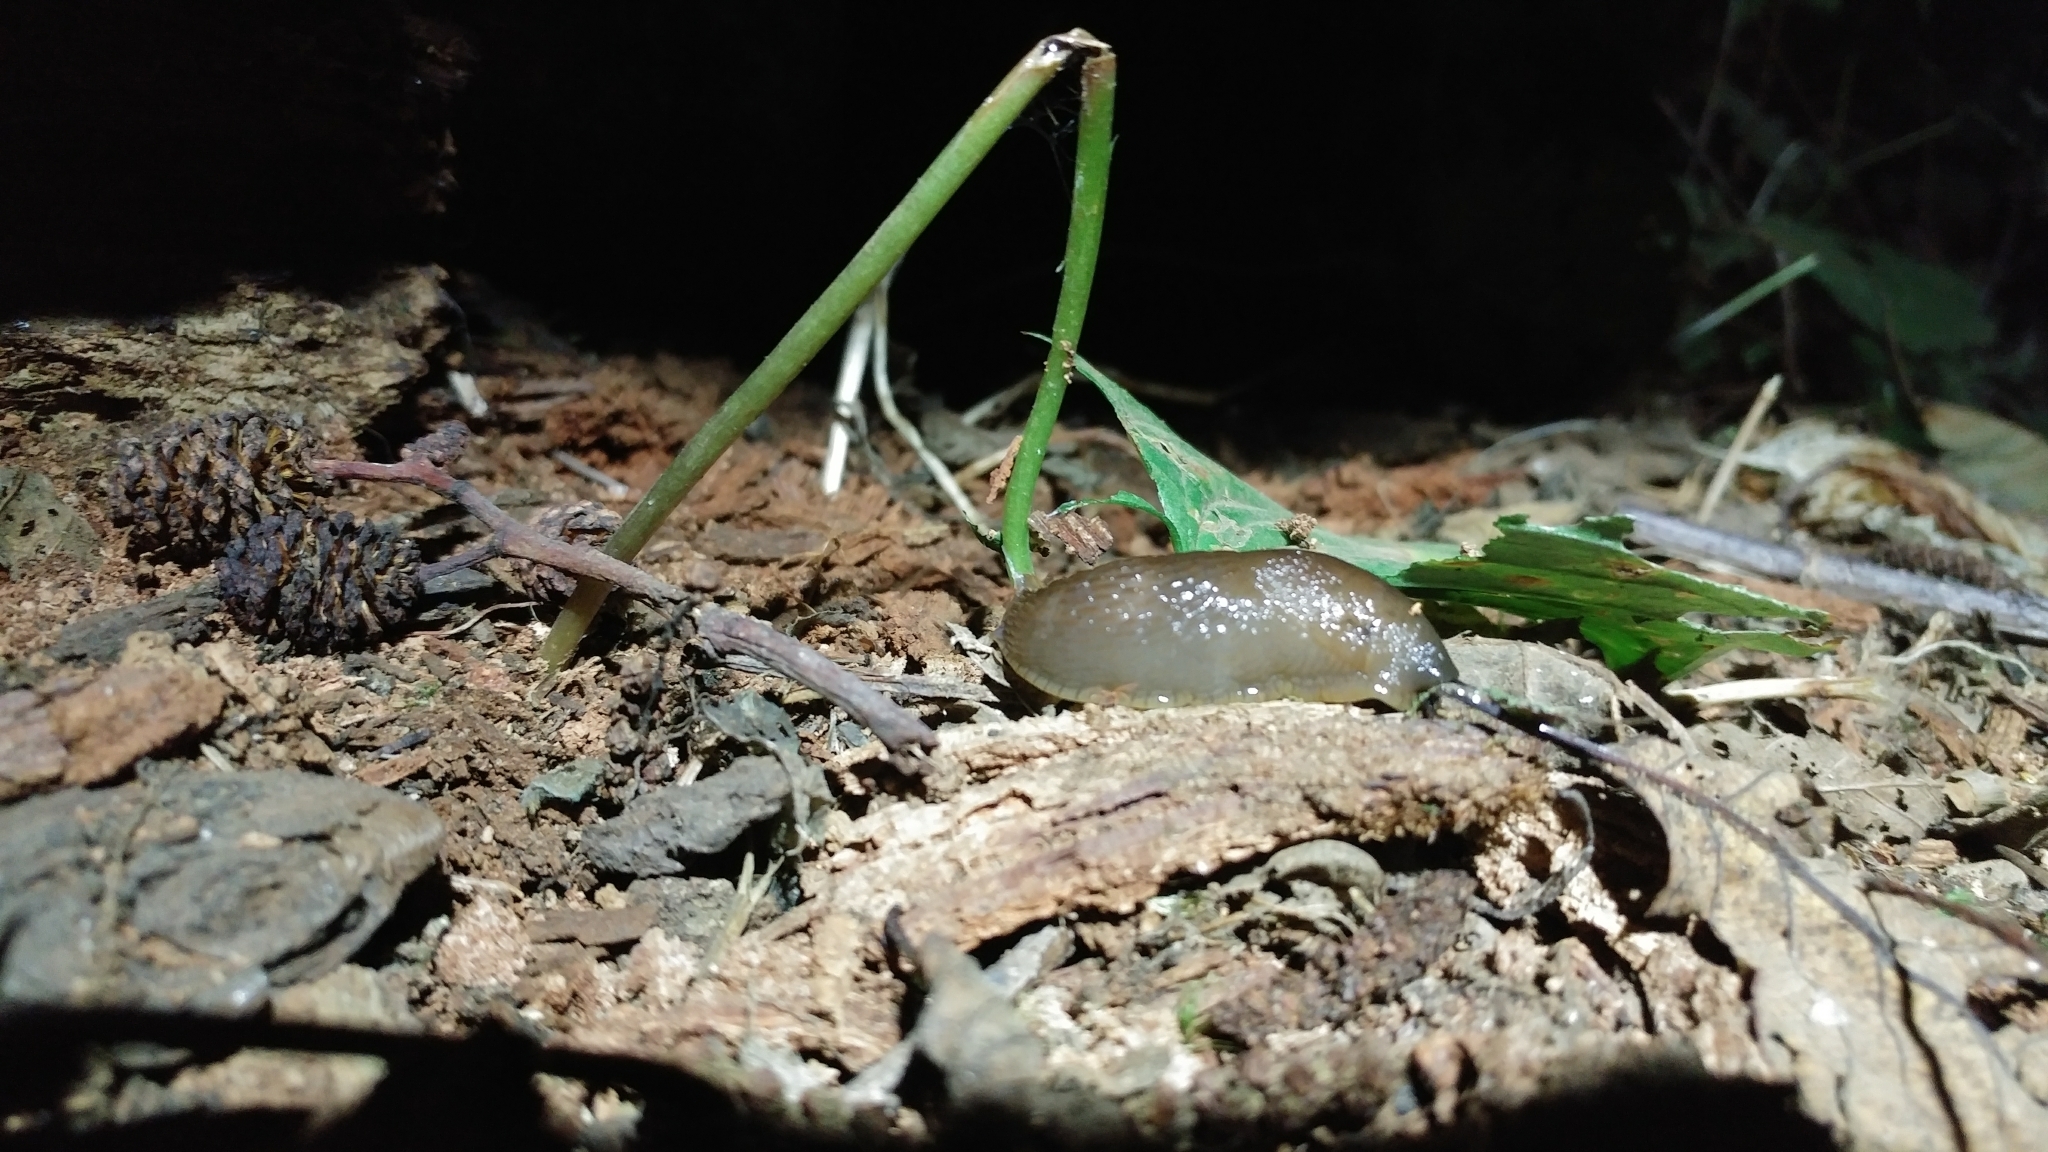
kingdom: Animalia
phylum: Mollusca
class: Gastropoda
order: Stylommatophora
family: Arionidae
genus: Arion
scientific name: Arion
